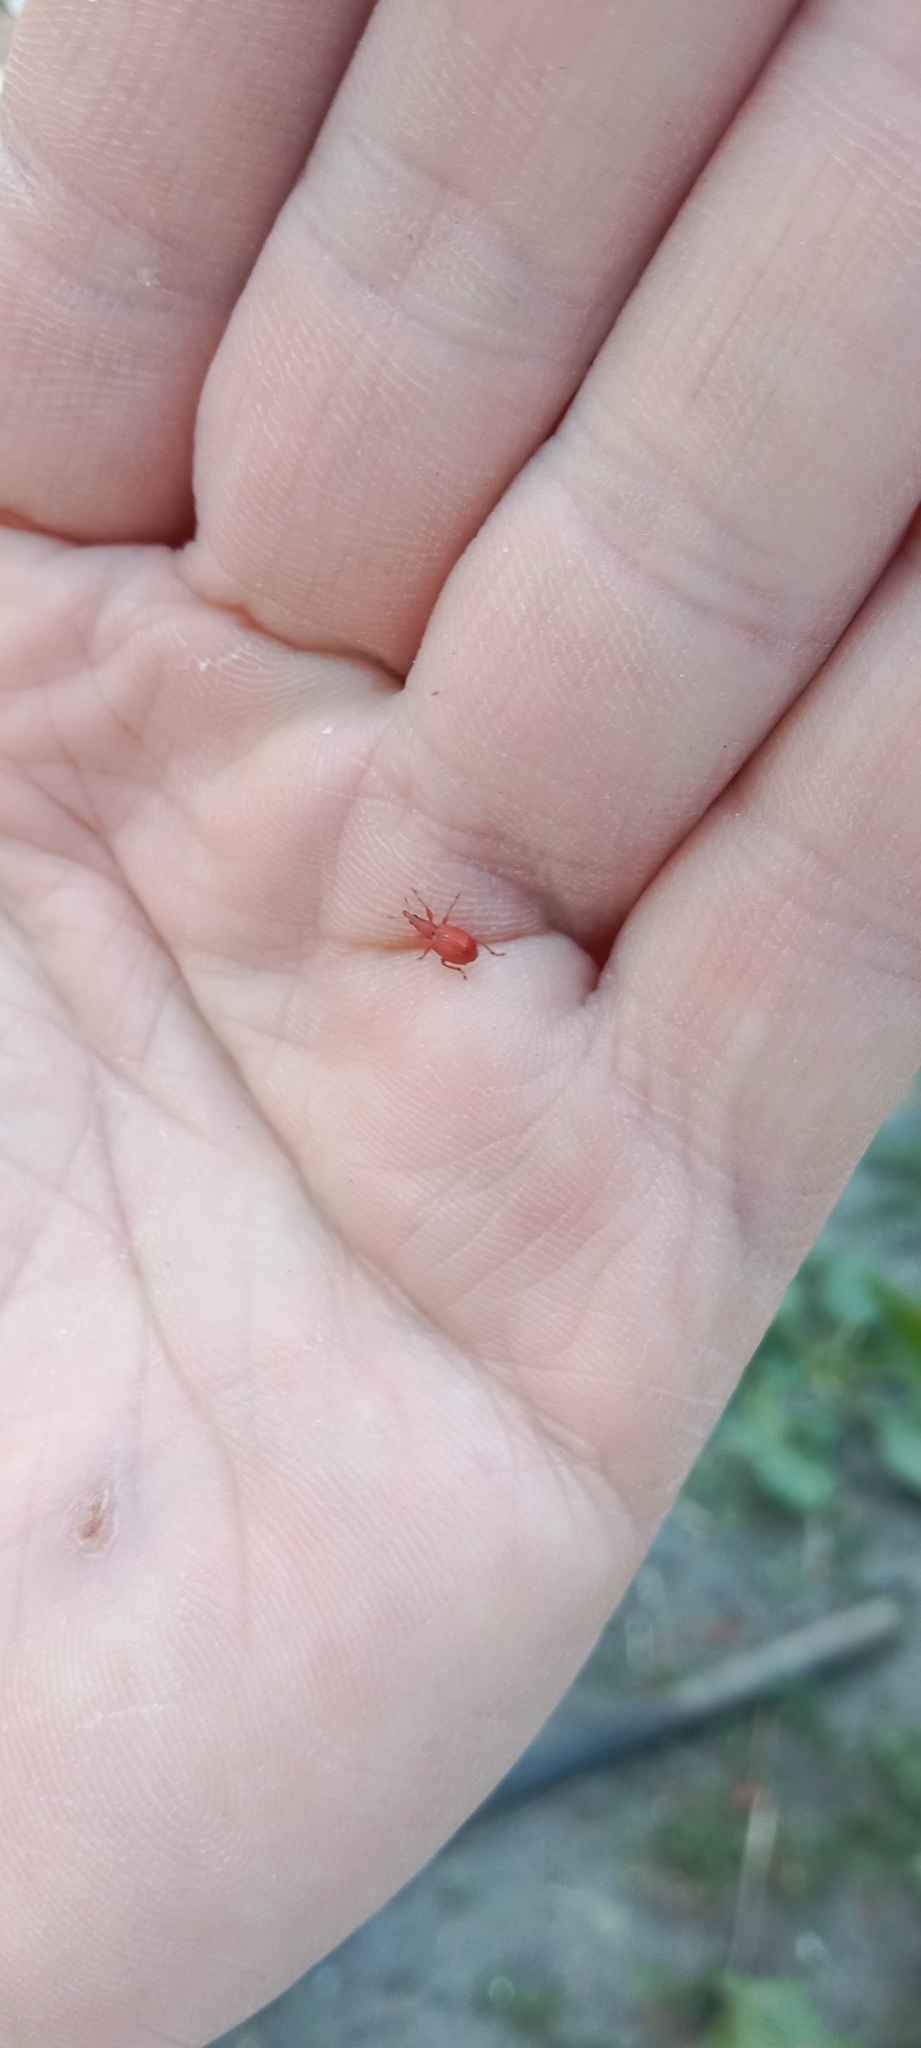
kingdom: Animalia
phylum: Arthropoda
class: Insecta
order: Coleoptera
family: Apionidae
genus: Apion
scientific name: Apion frumentarium
